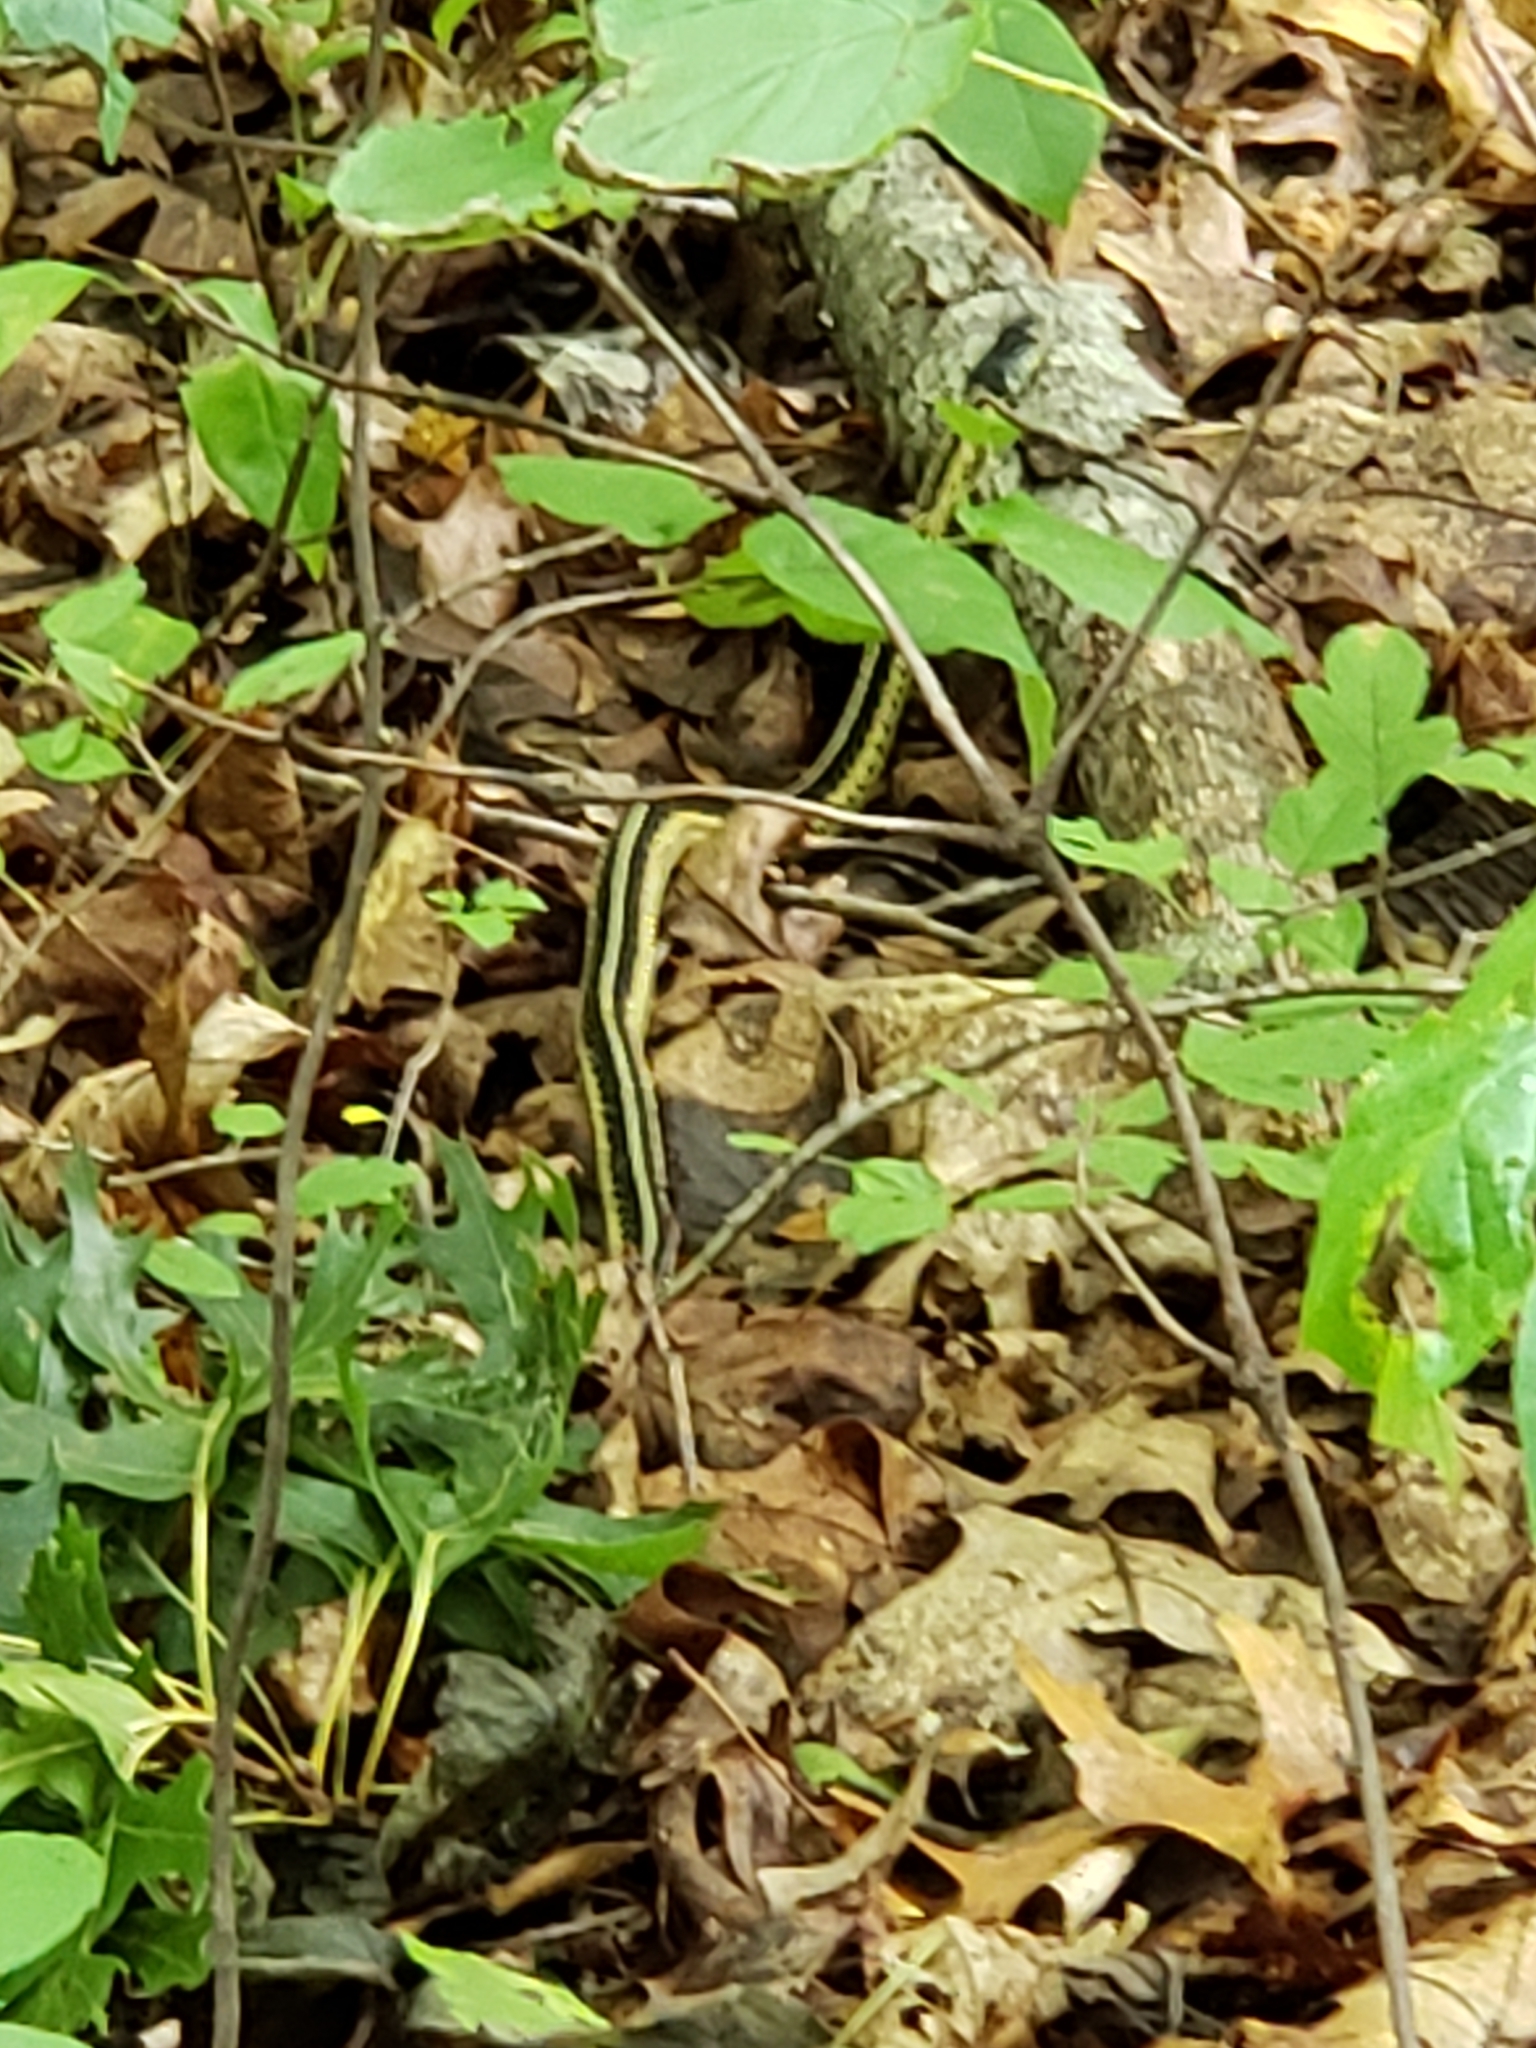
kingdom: Animalia
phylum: Chordata
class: Squamata
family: Colubridae
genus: Thamnophis
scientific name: Thamnophis sirtalis
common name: Common garter snake
